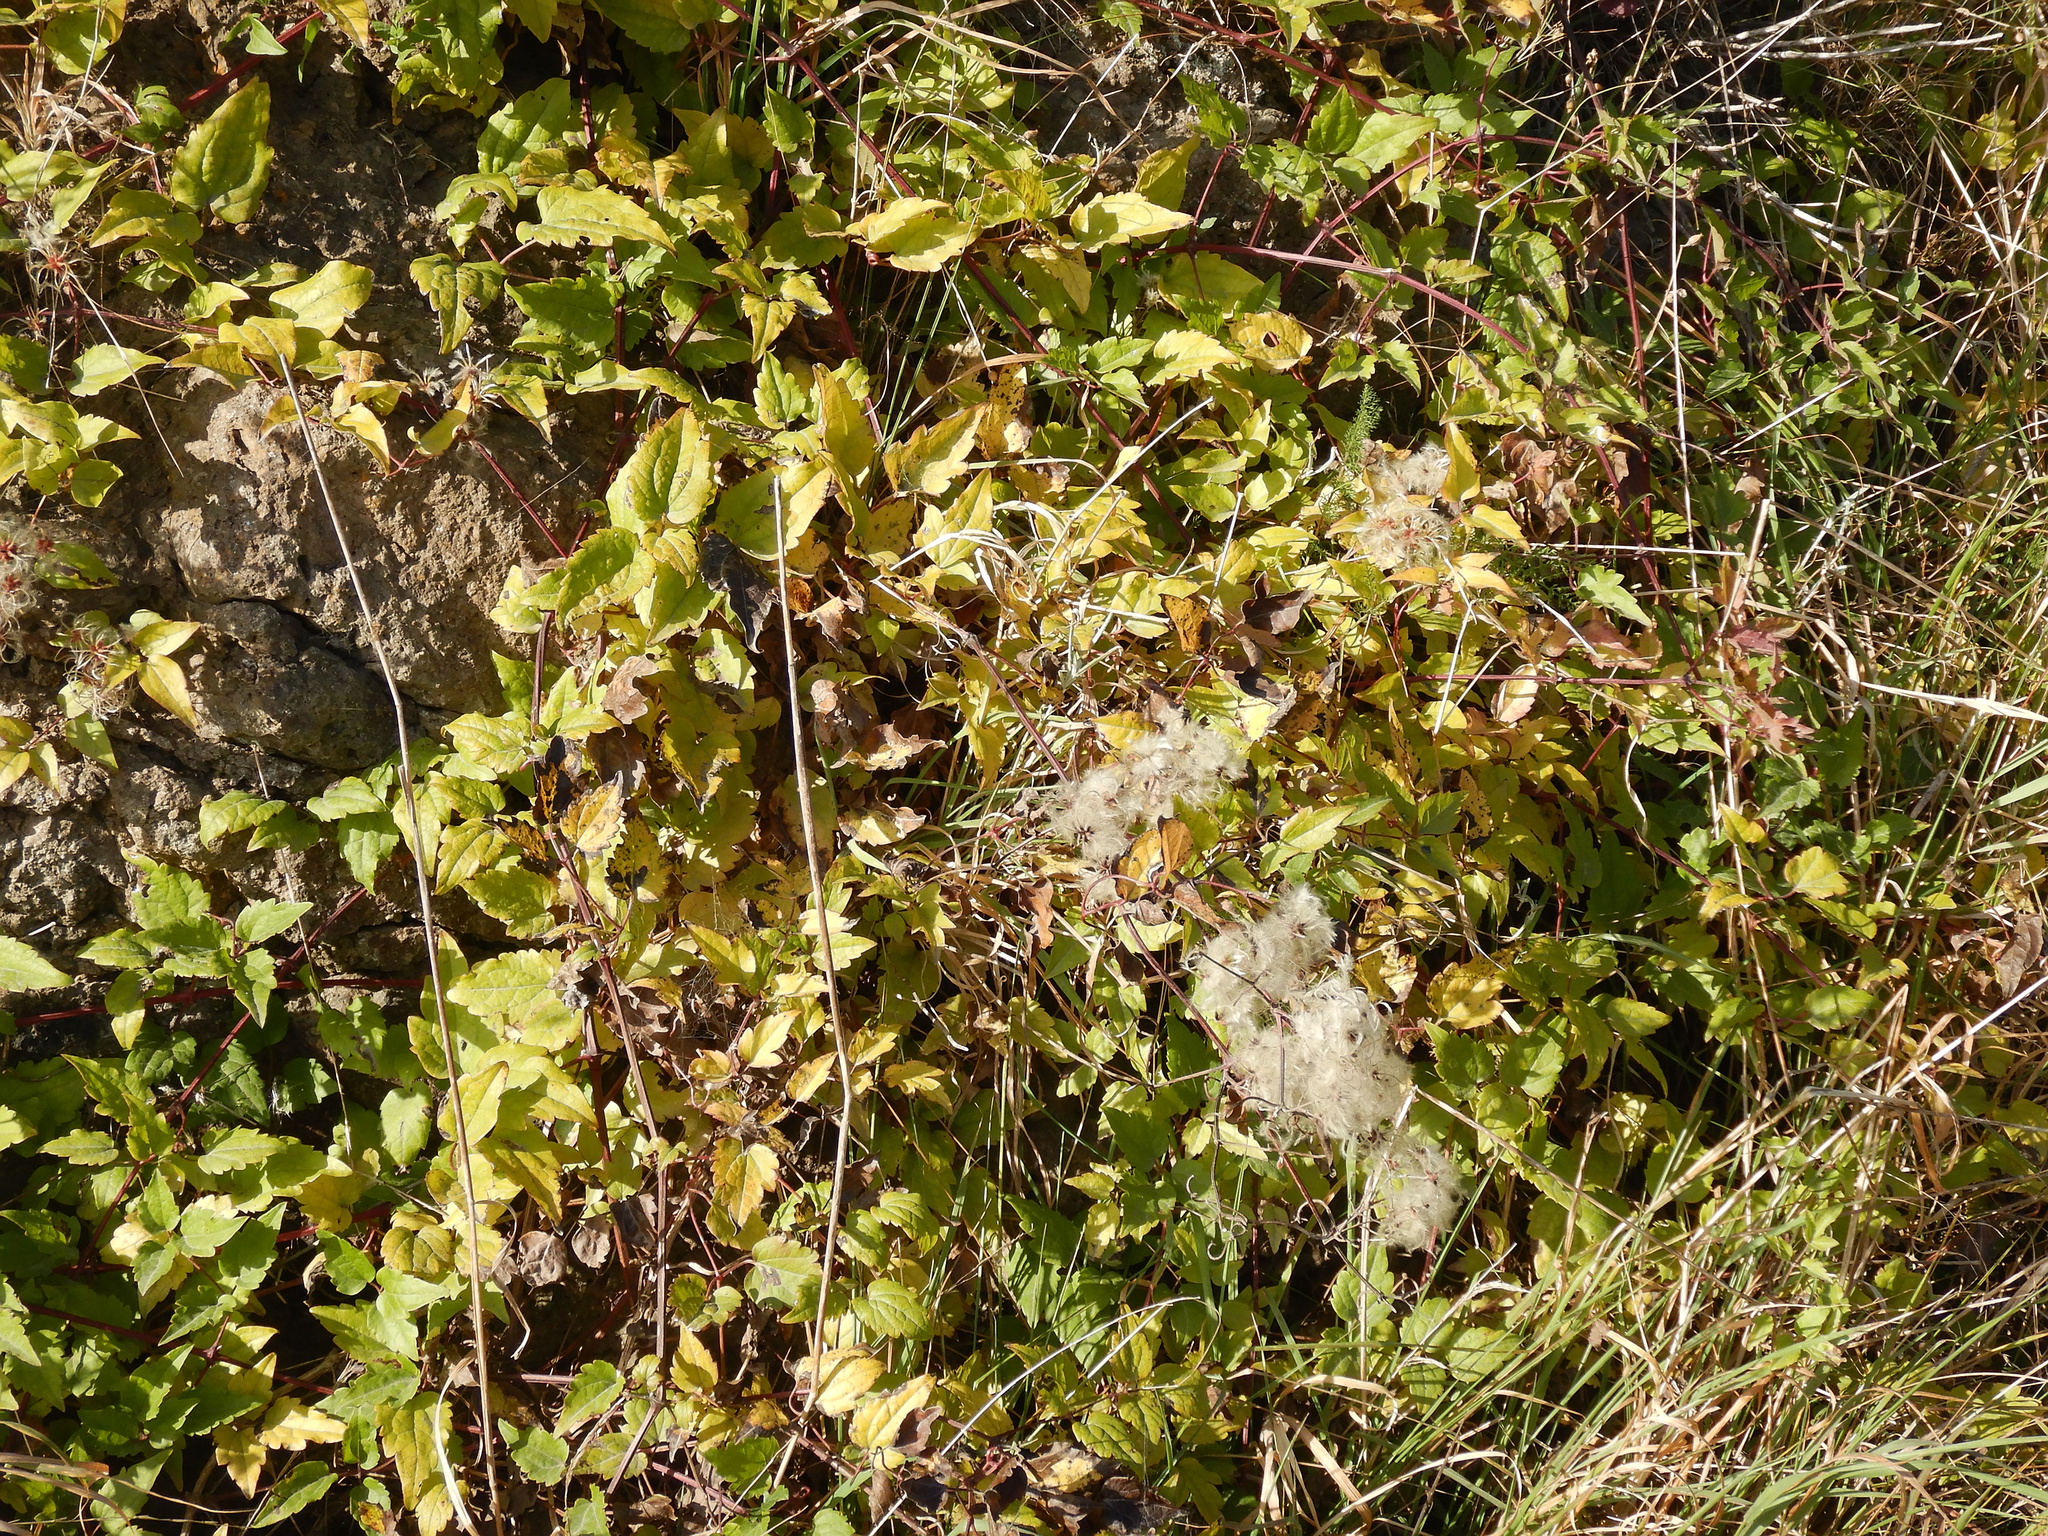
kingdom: Plantae
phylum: Tracheophyta
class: Magnoliopsida
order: Ranunculales
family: Ranunculaceae
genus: Clematis
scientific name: Clematis vitalba
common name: Evergreen clematis
